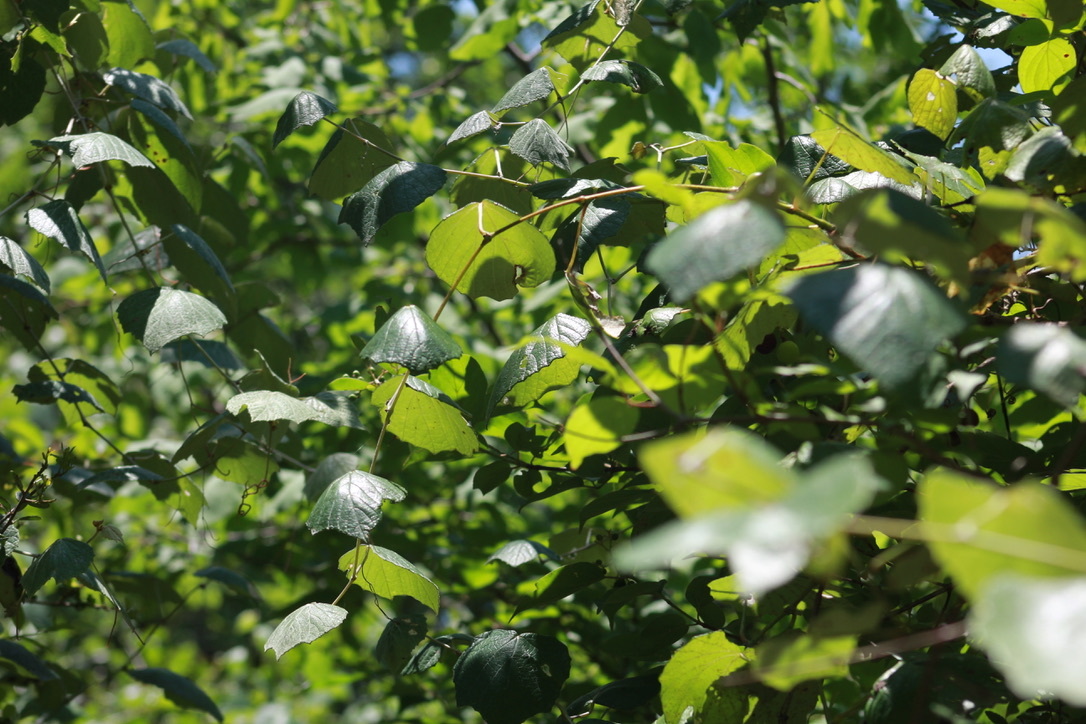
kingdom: Plantae
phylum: Tracheophyta
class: Magnoliopsida
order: Vitales
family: Vitaceae
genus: Vitis
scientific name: Vitis mustangensis
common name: Mustang grape
